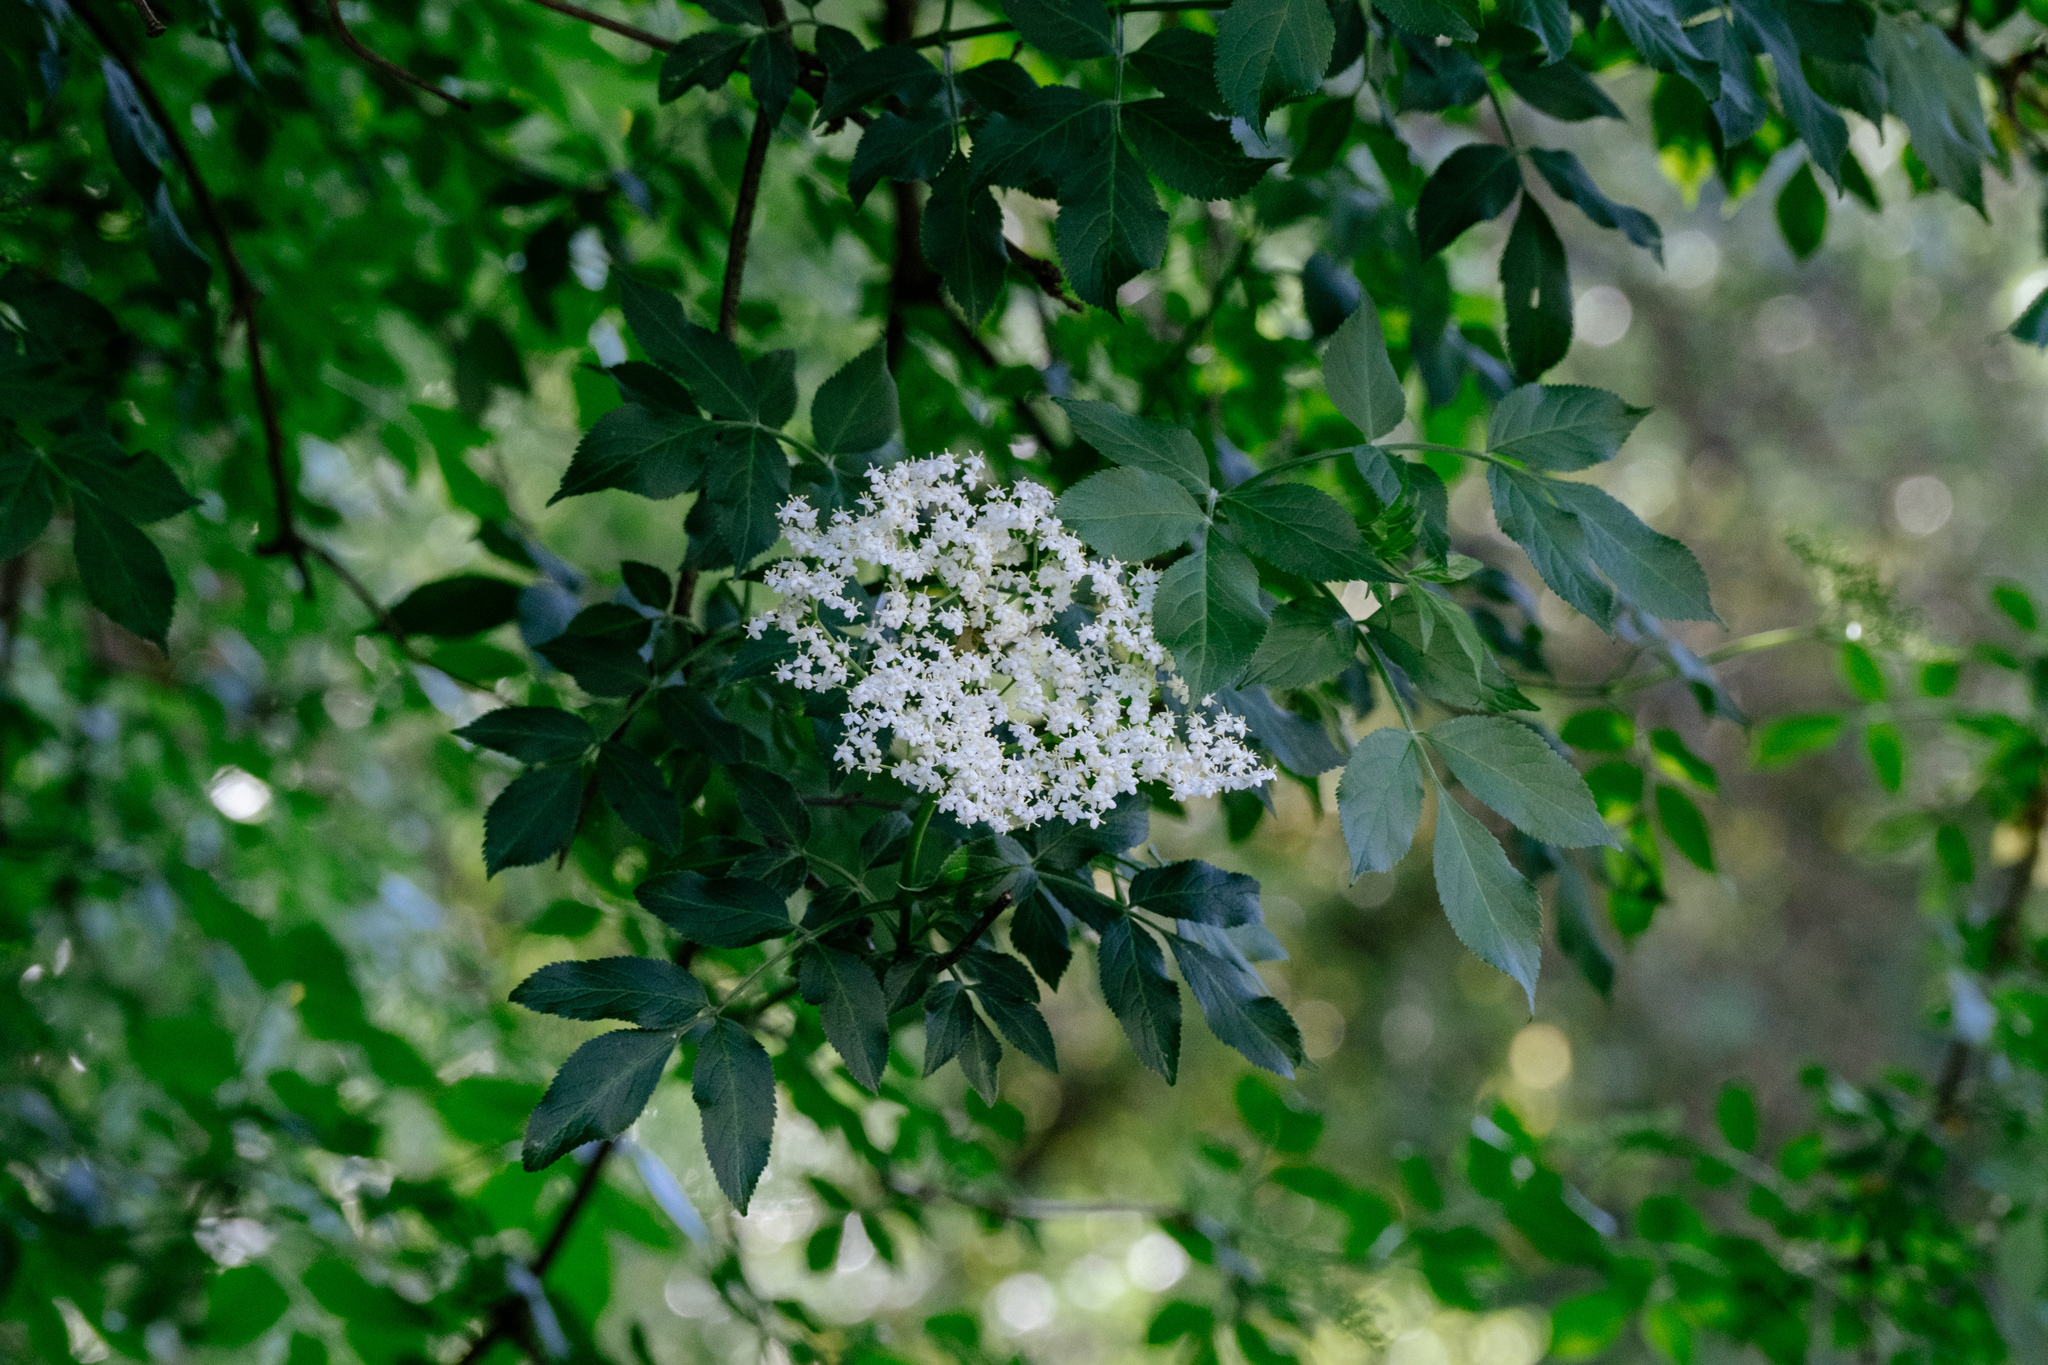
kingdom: Plantae
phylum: Tracheophyta
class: Magnoliopsida
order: Dipsacales
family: Viburnaceae
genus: Sambucus
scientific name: Sambucus nigra
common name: Elder
